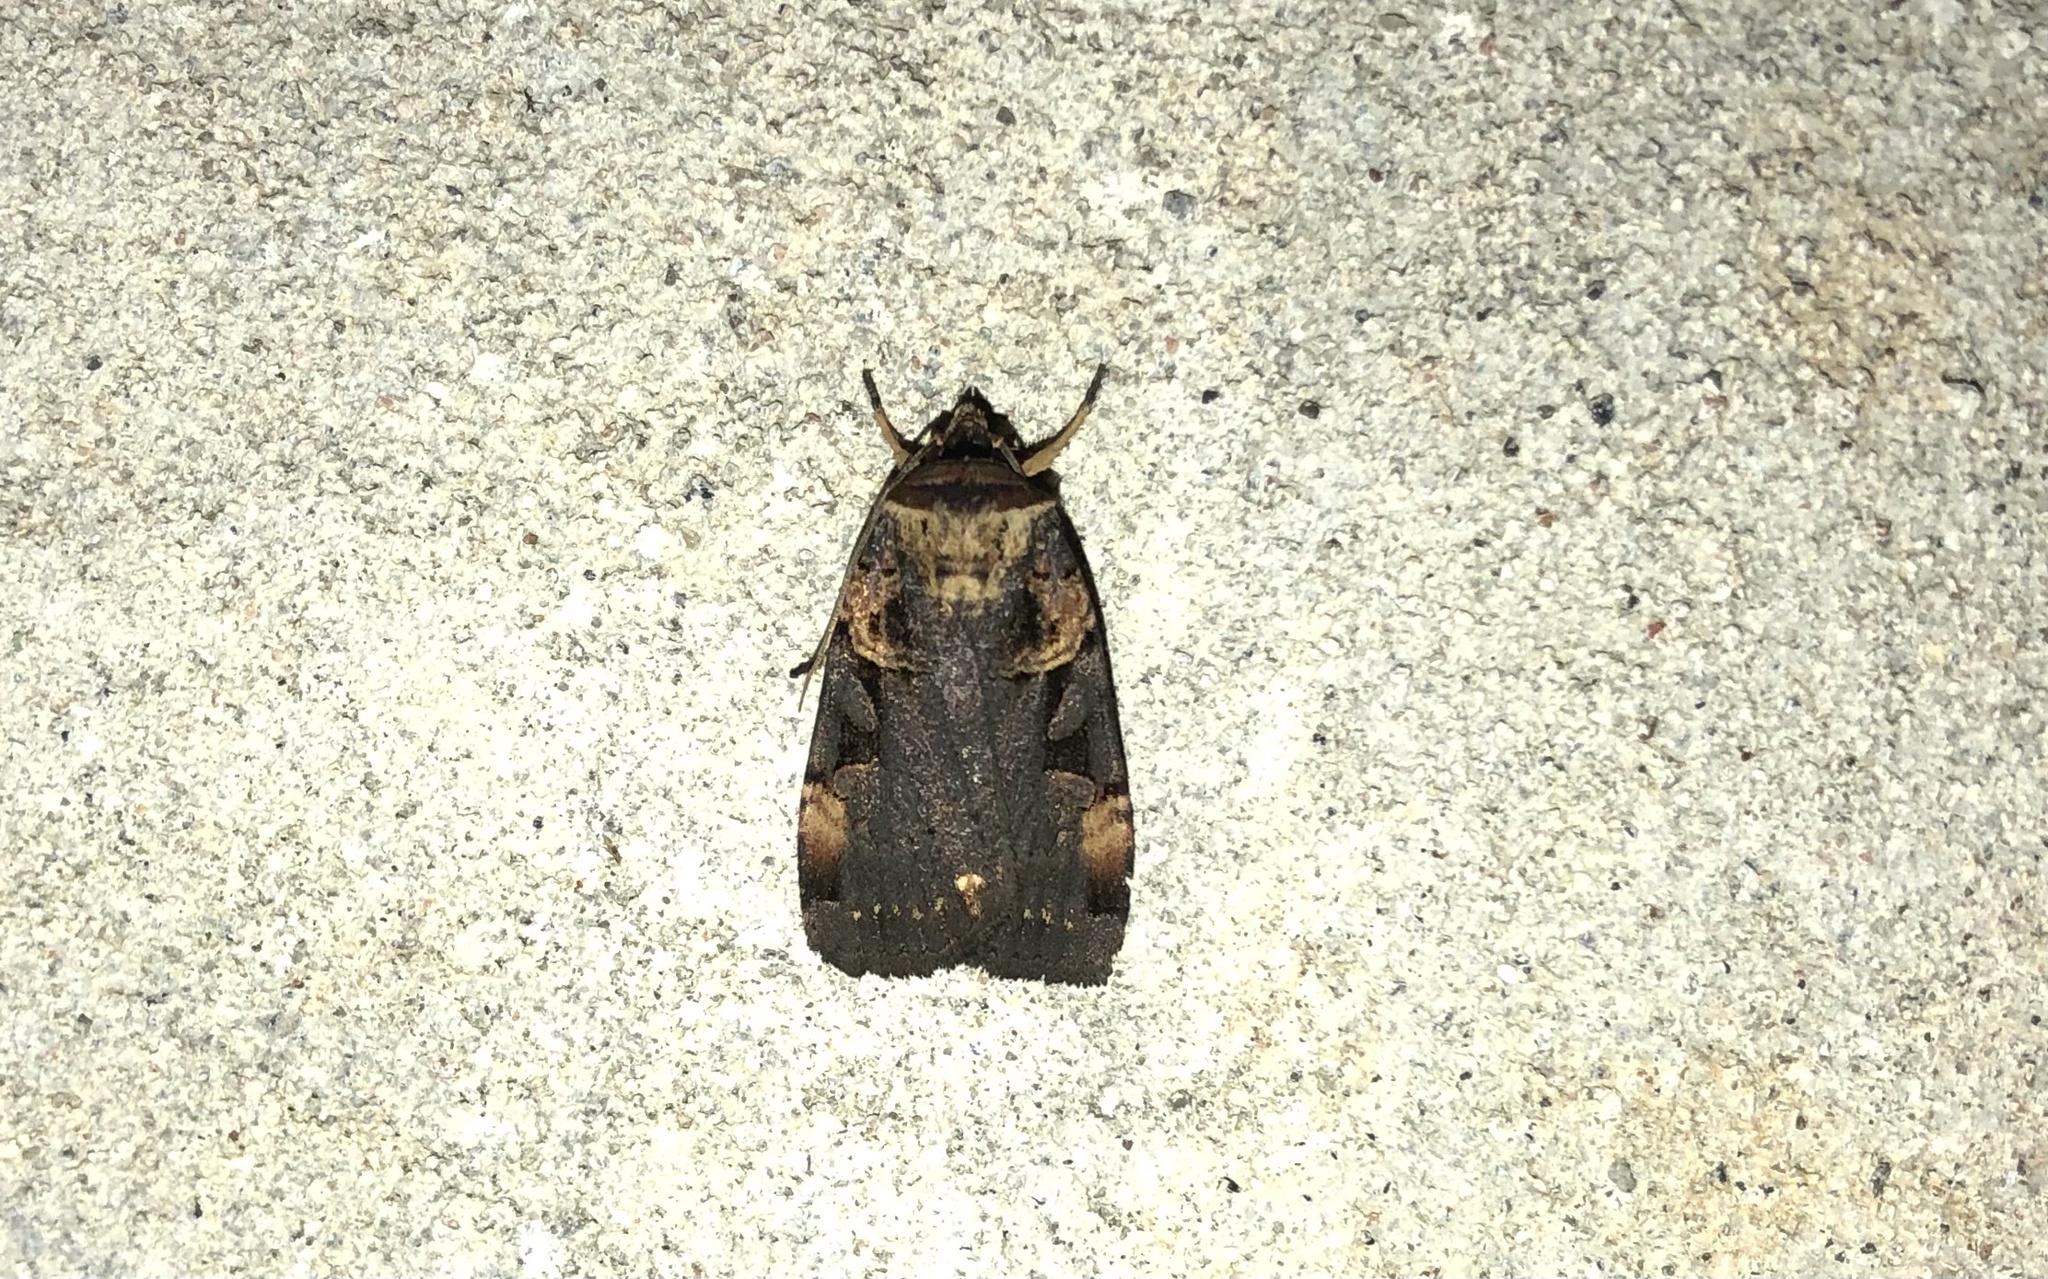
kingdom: Animalia
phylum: Arthropoda
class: Insecta
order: Lepidoptera
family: Noctuidae
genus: Pseudohermonassa
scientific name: Pseudohermonassa bicarnea
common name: Pink spotted dart
